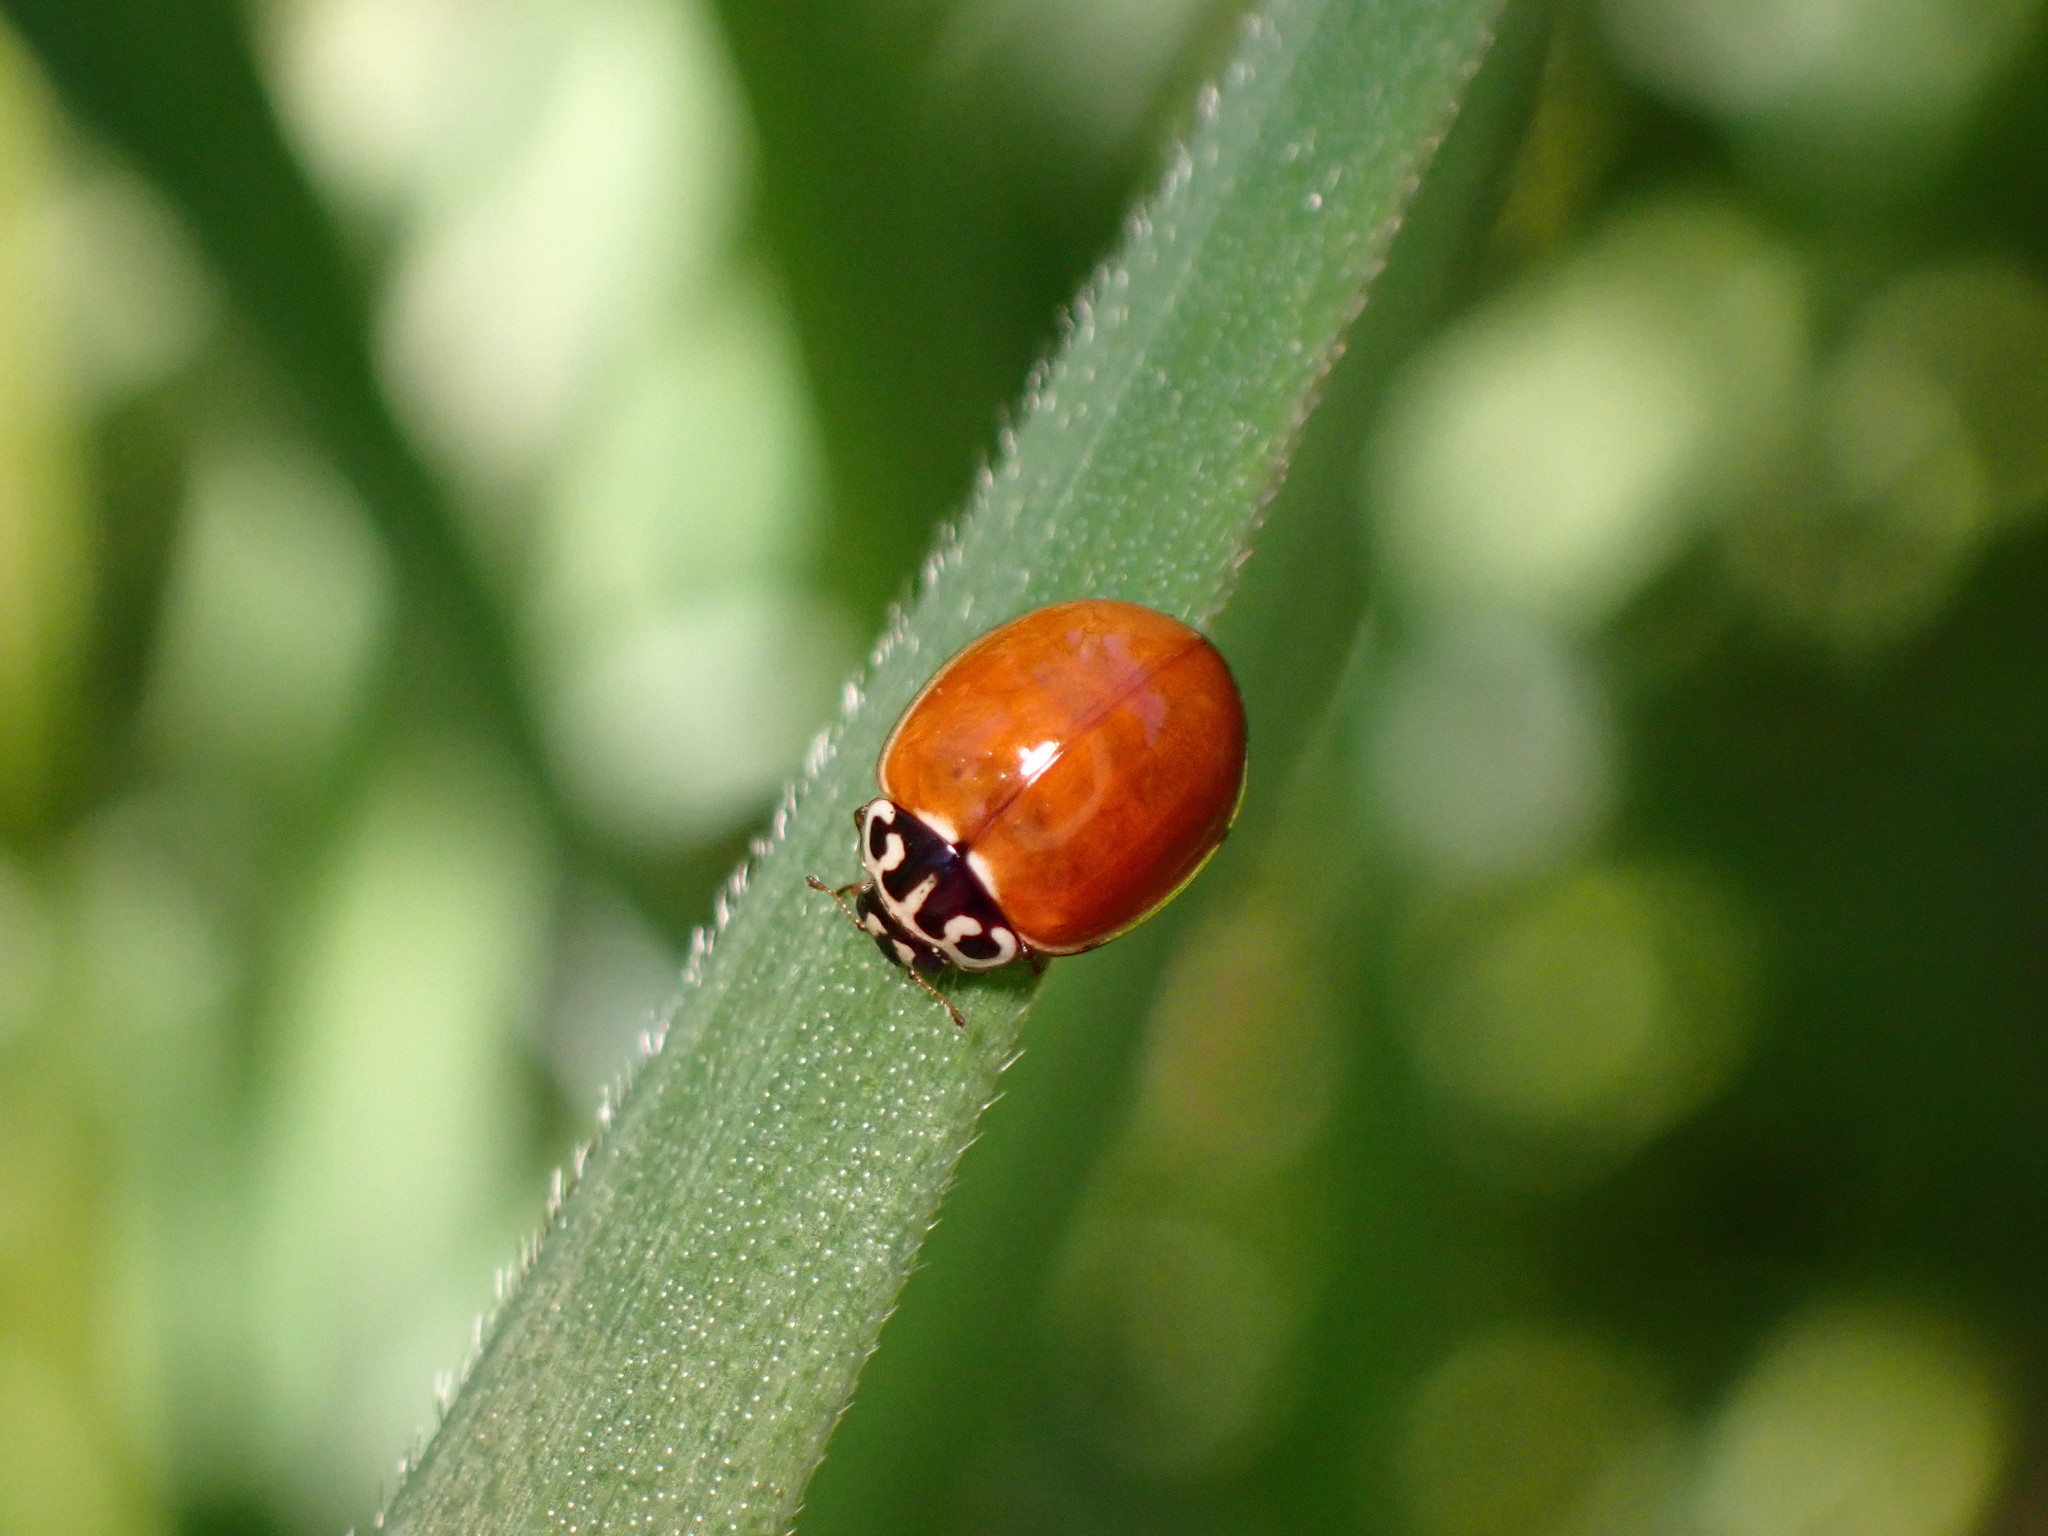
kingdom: Animalia
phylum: Arthropoda
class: Insecta
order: Coleoptera
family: Coccinellidae
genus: Cycloneda
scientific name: Cycloneda polita
